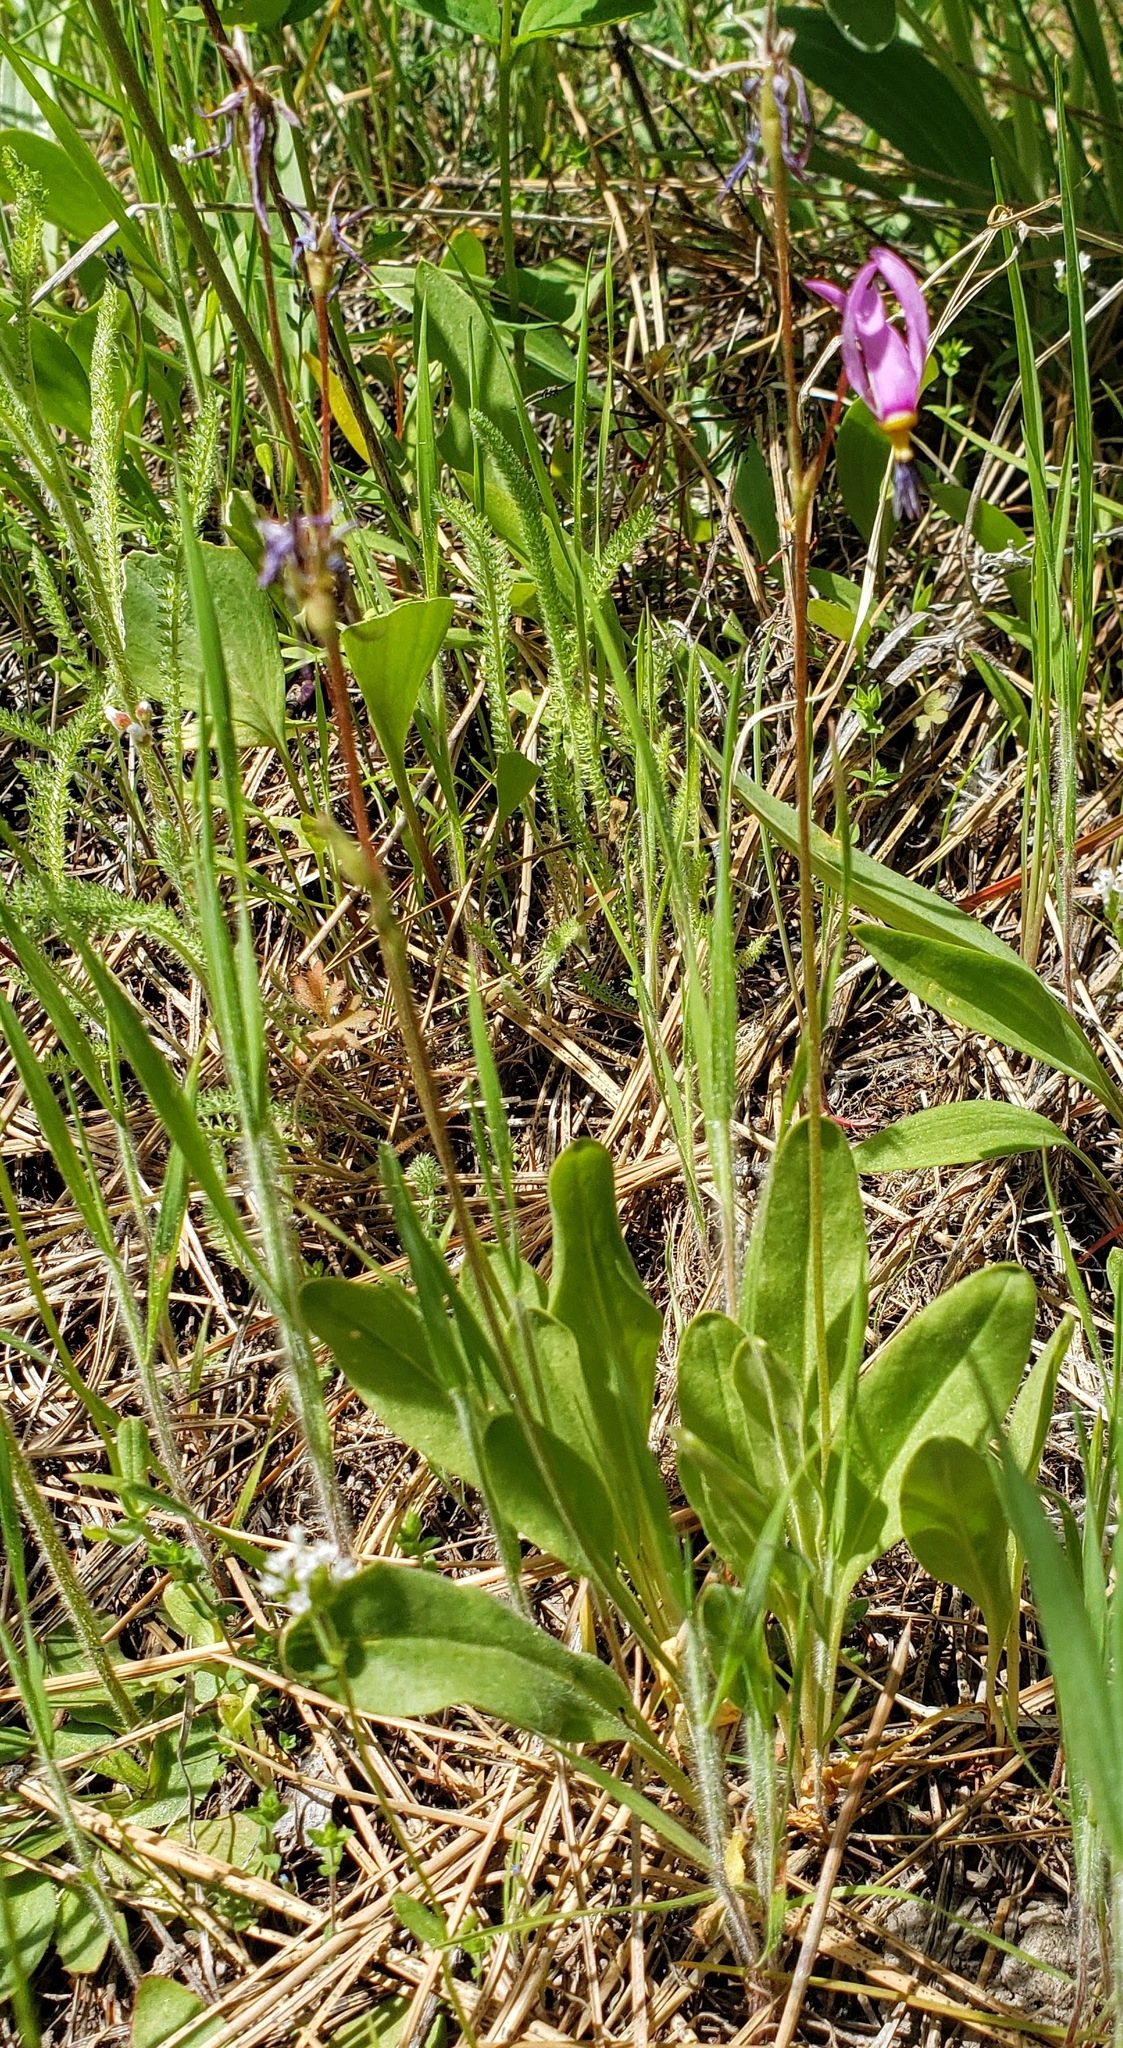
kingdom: Plantae
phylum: Tracheophyta
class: Magnoliopsida
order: Ericales
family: Primulaceae
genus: Dodecatheon
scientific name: Dodecatheon pulchellum
